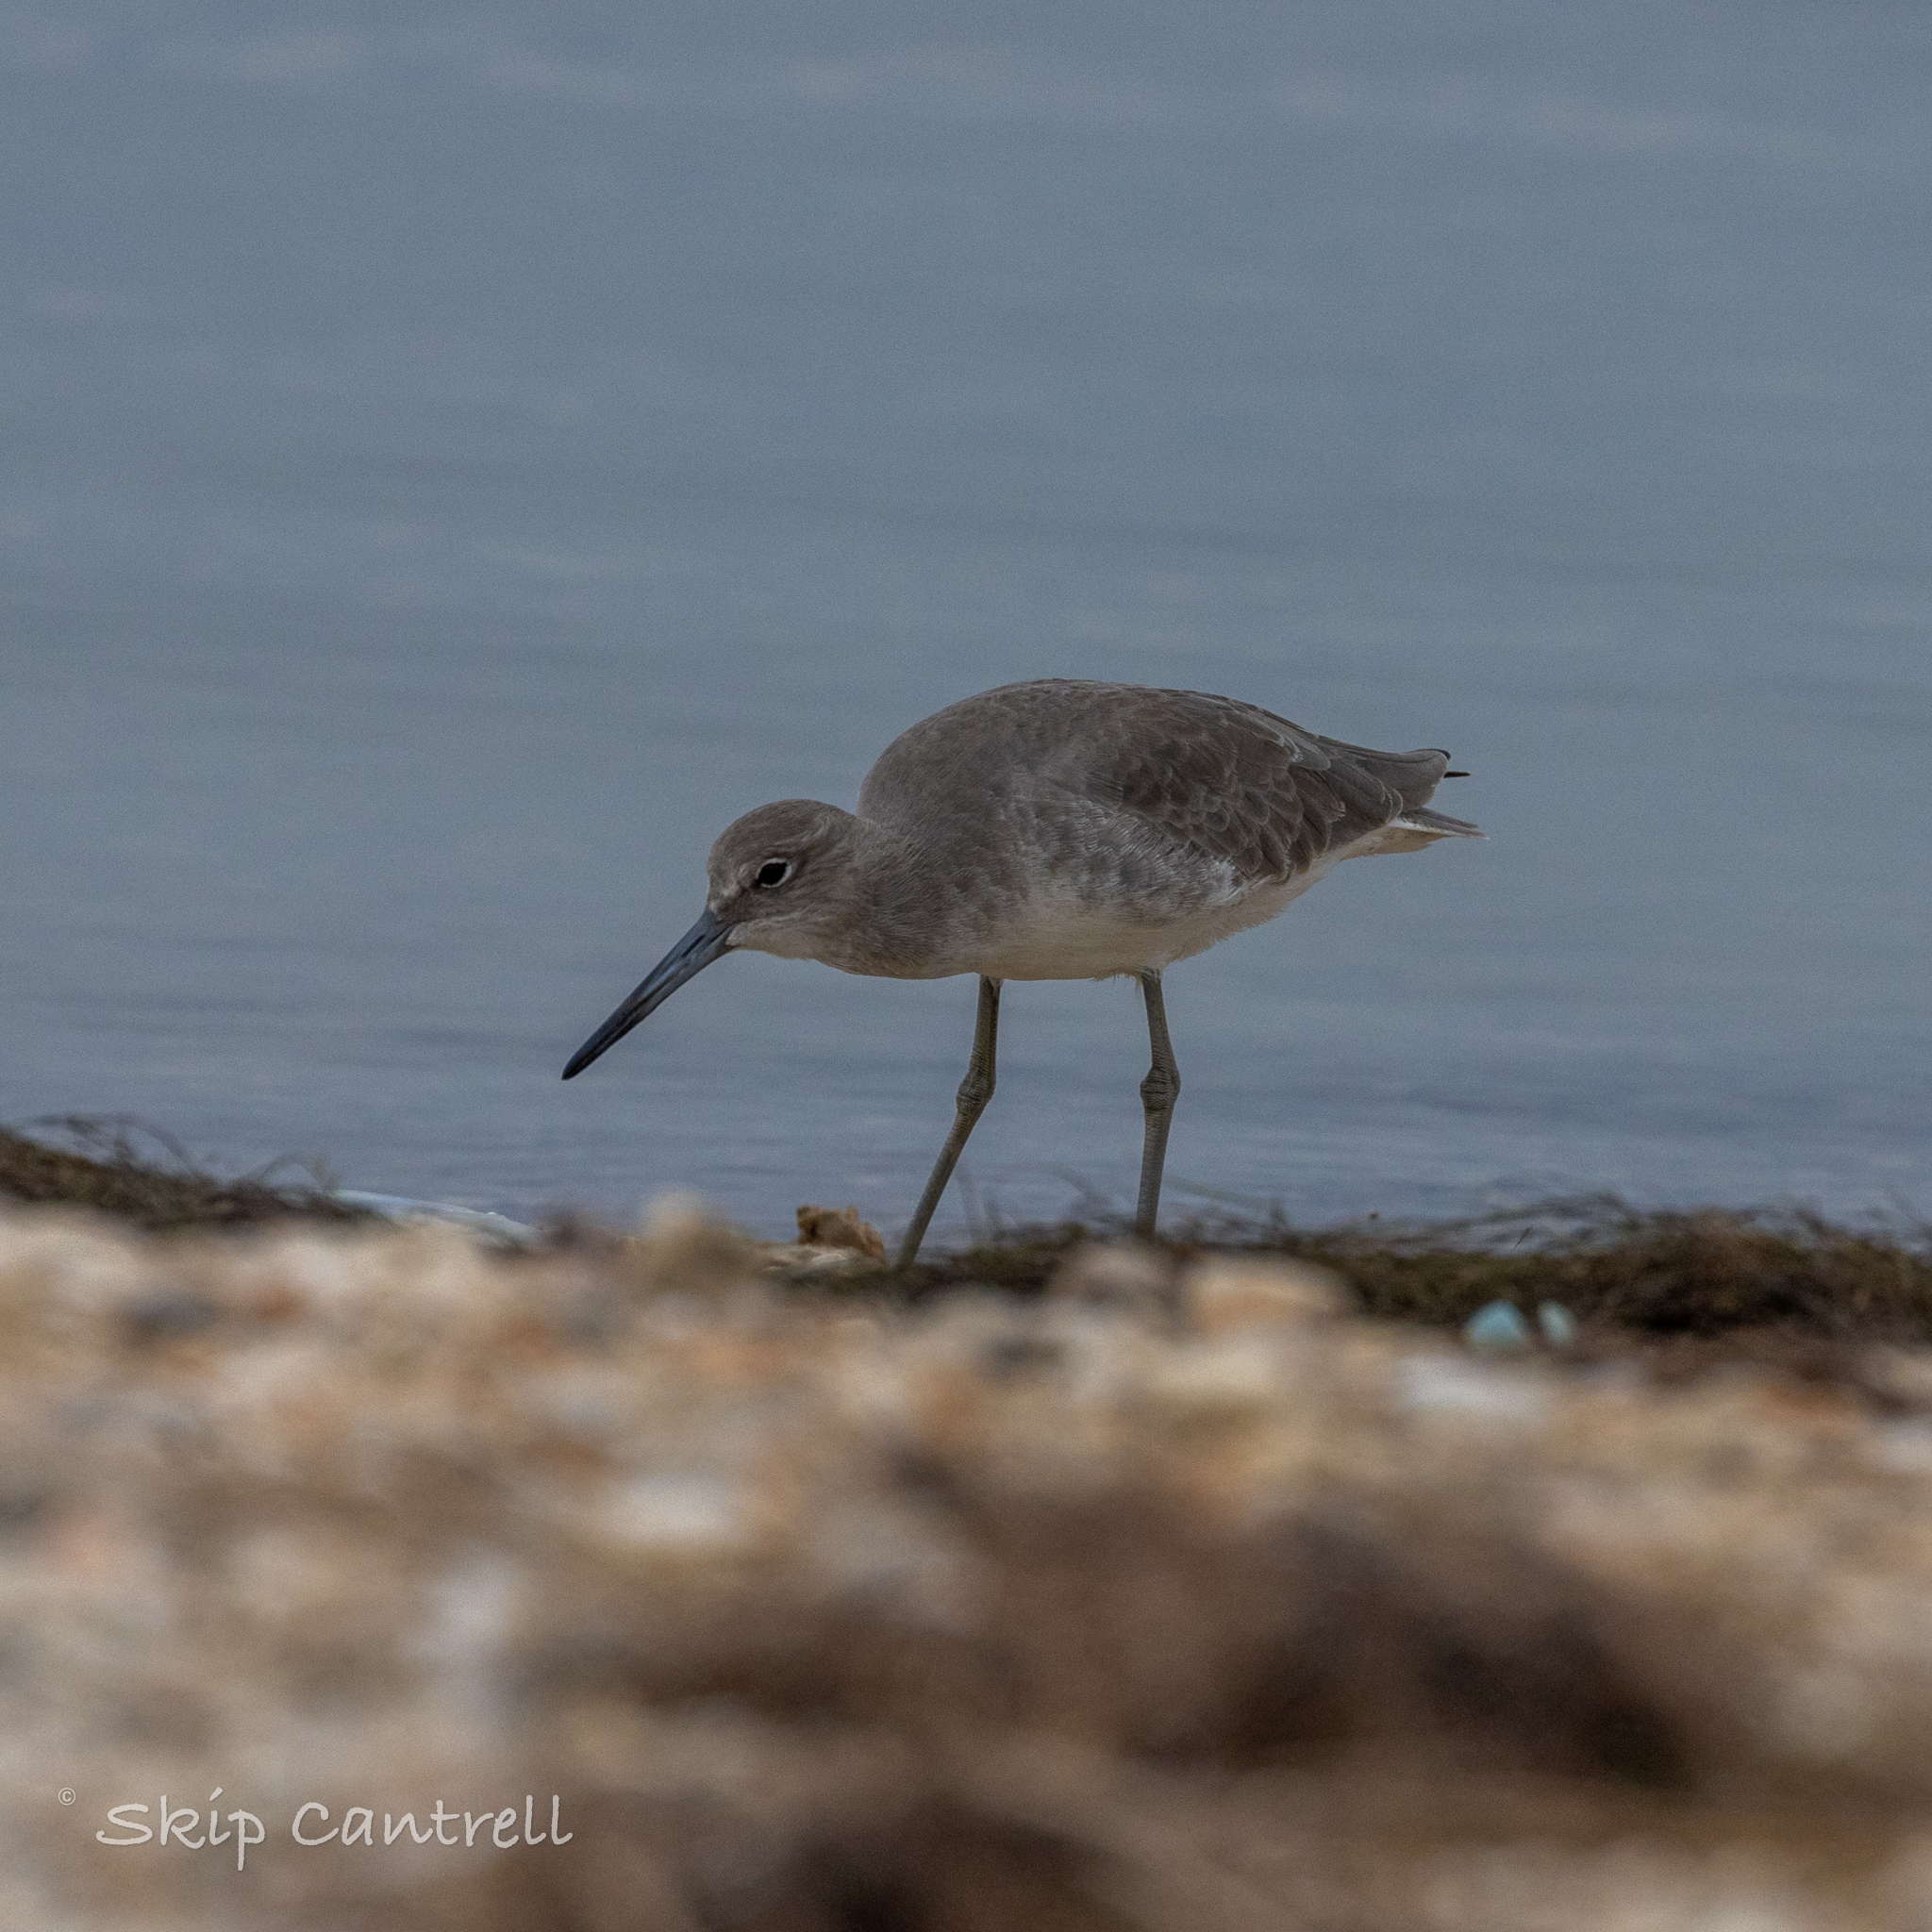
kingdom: Animalia
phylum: Chordata
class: Aves
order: Charadriiformes
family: Scolopacidae
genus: Tringa
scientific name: Tringa semipalmata
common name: Willet
